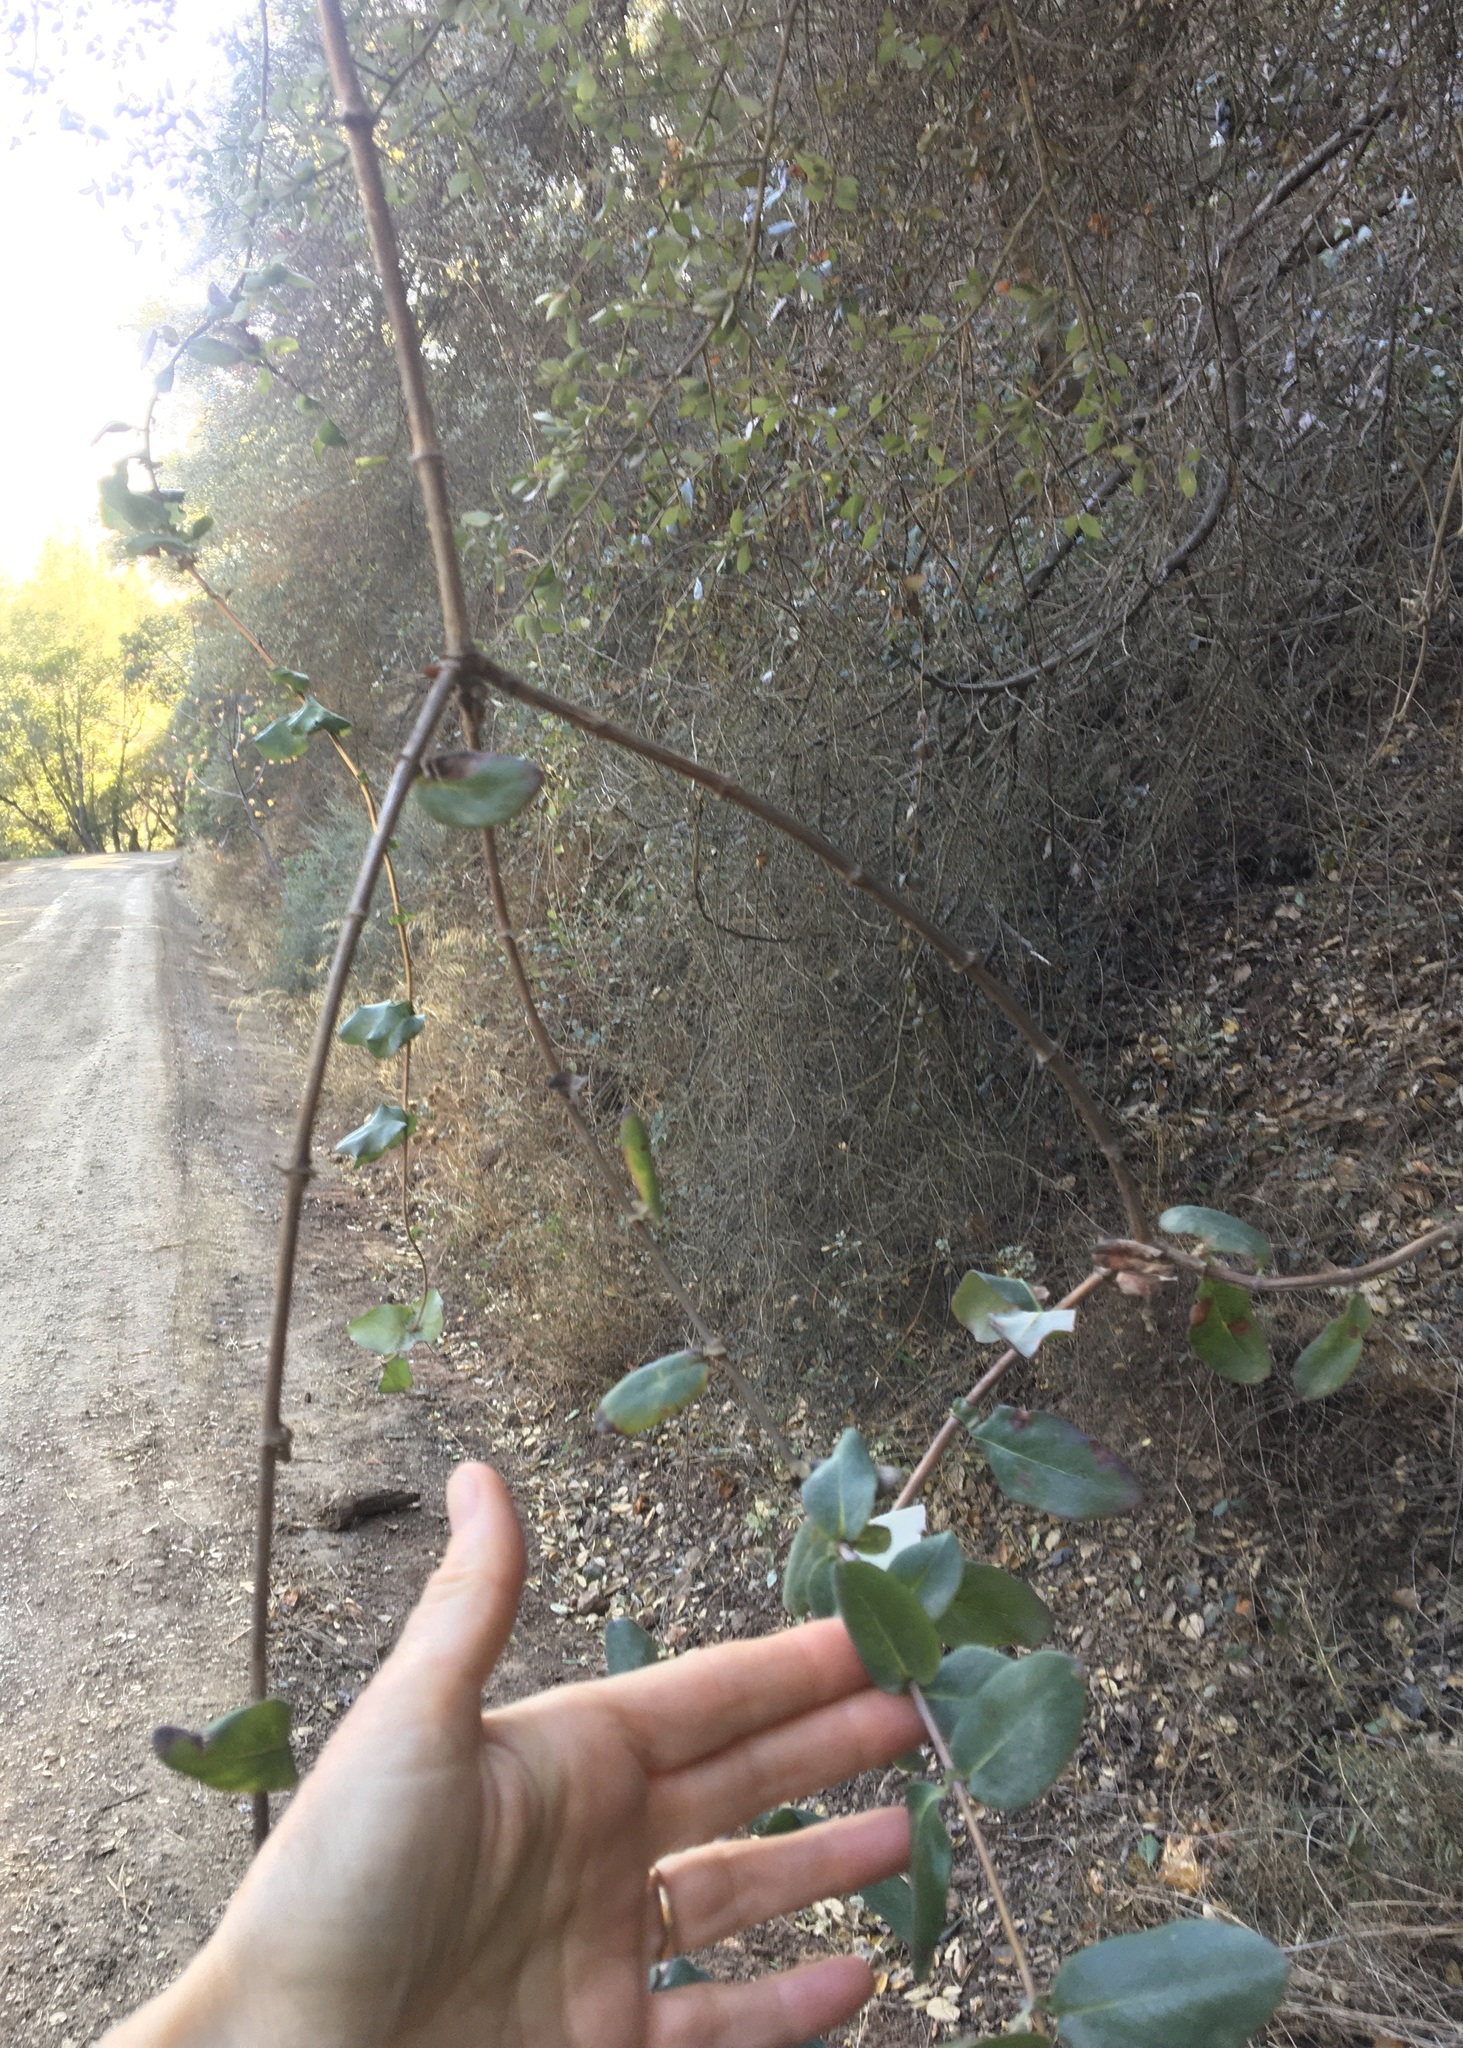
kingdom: Plantae
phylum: Tracheophyta
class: Magnoliopsida
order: Dipsacales
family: Caprifoliaceae
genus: Lonicera
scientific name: Lonicera hispidula
